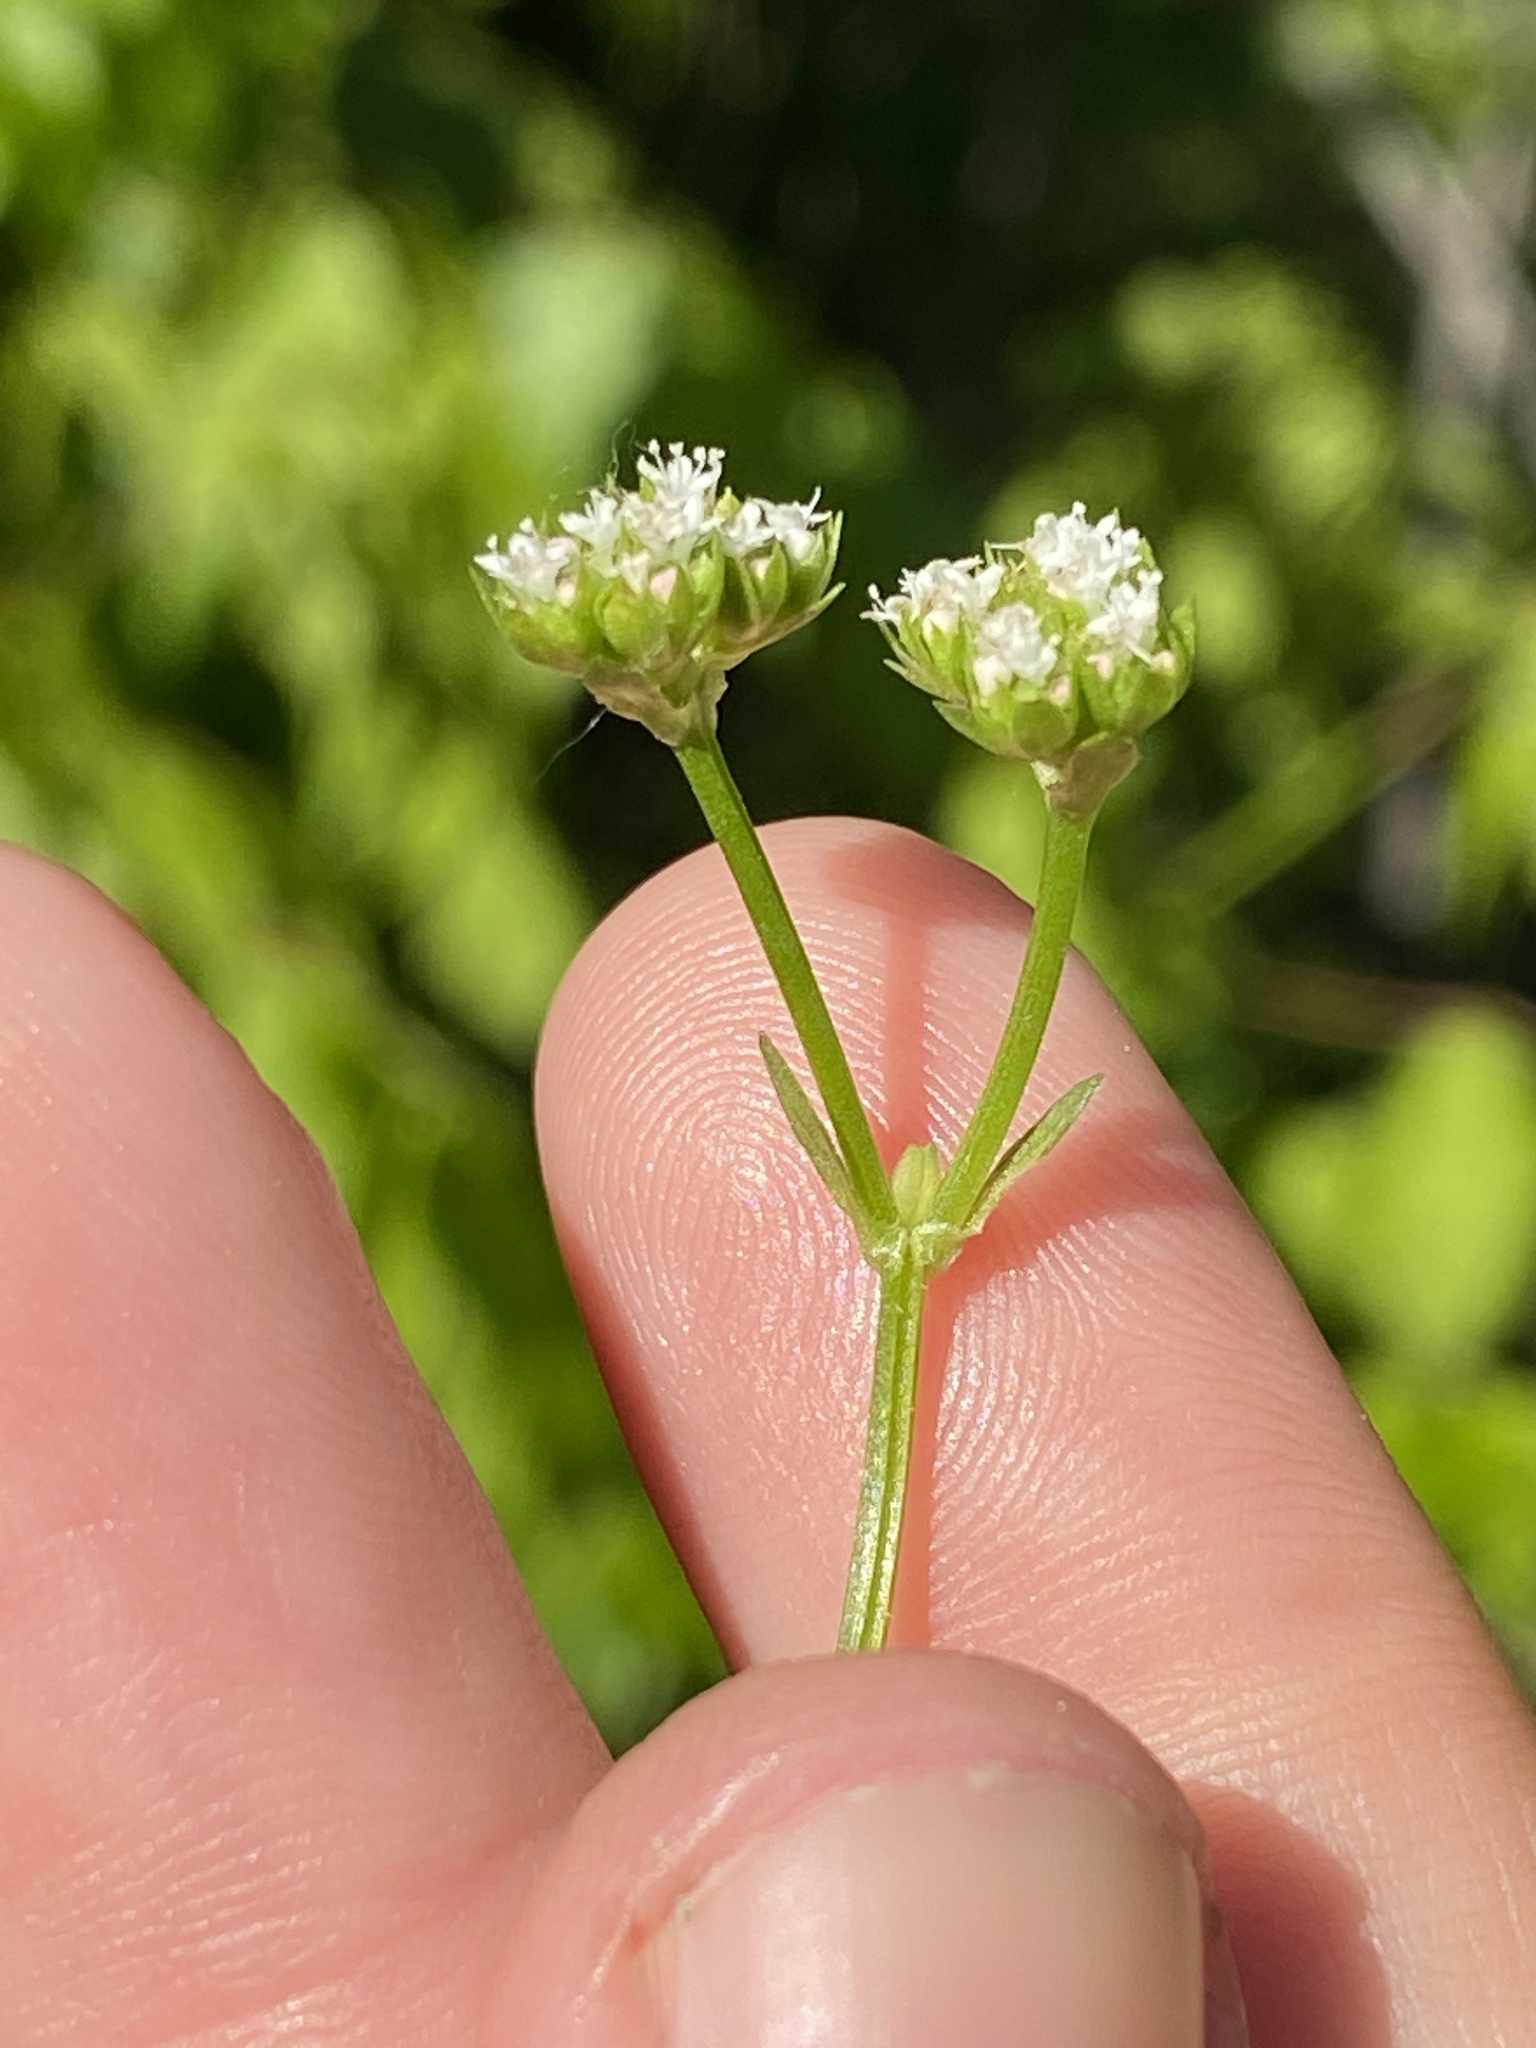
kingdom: Plantae
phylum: Tracheophyta
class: Magnoliopsida
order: Dipsacales
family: Caprifoliaceae
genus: Valerianella
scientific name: Valerianella radiata
